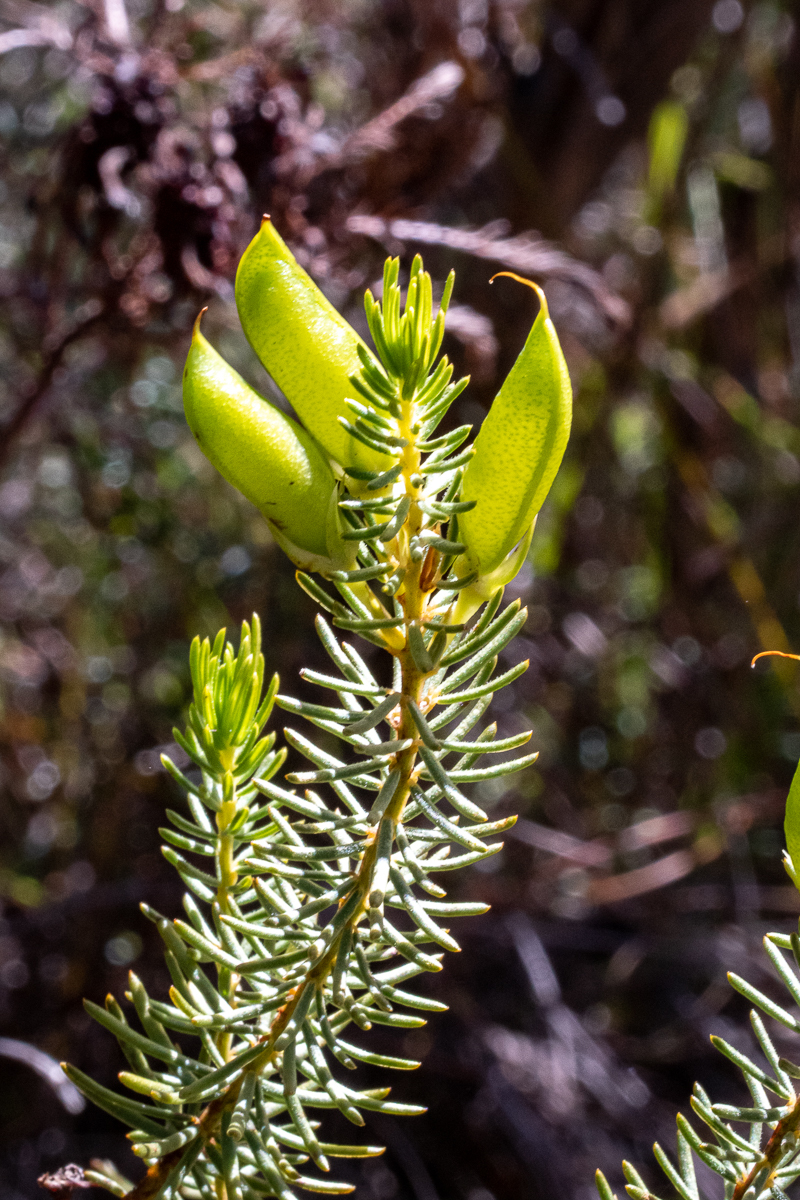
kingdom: Plantae
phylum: Tracheophyta
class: Magnoliopsida
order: Fabales
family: Fabaceae
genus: Cyclopia
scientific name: Cyclopia genistoides
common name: Honeybush tea
